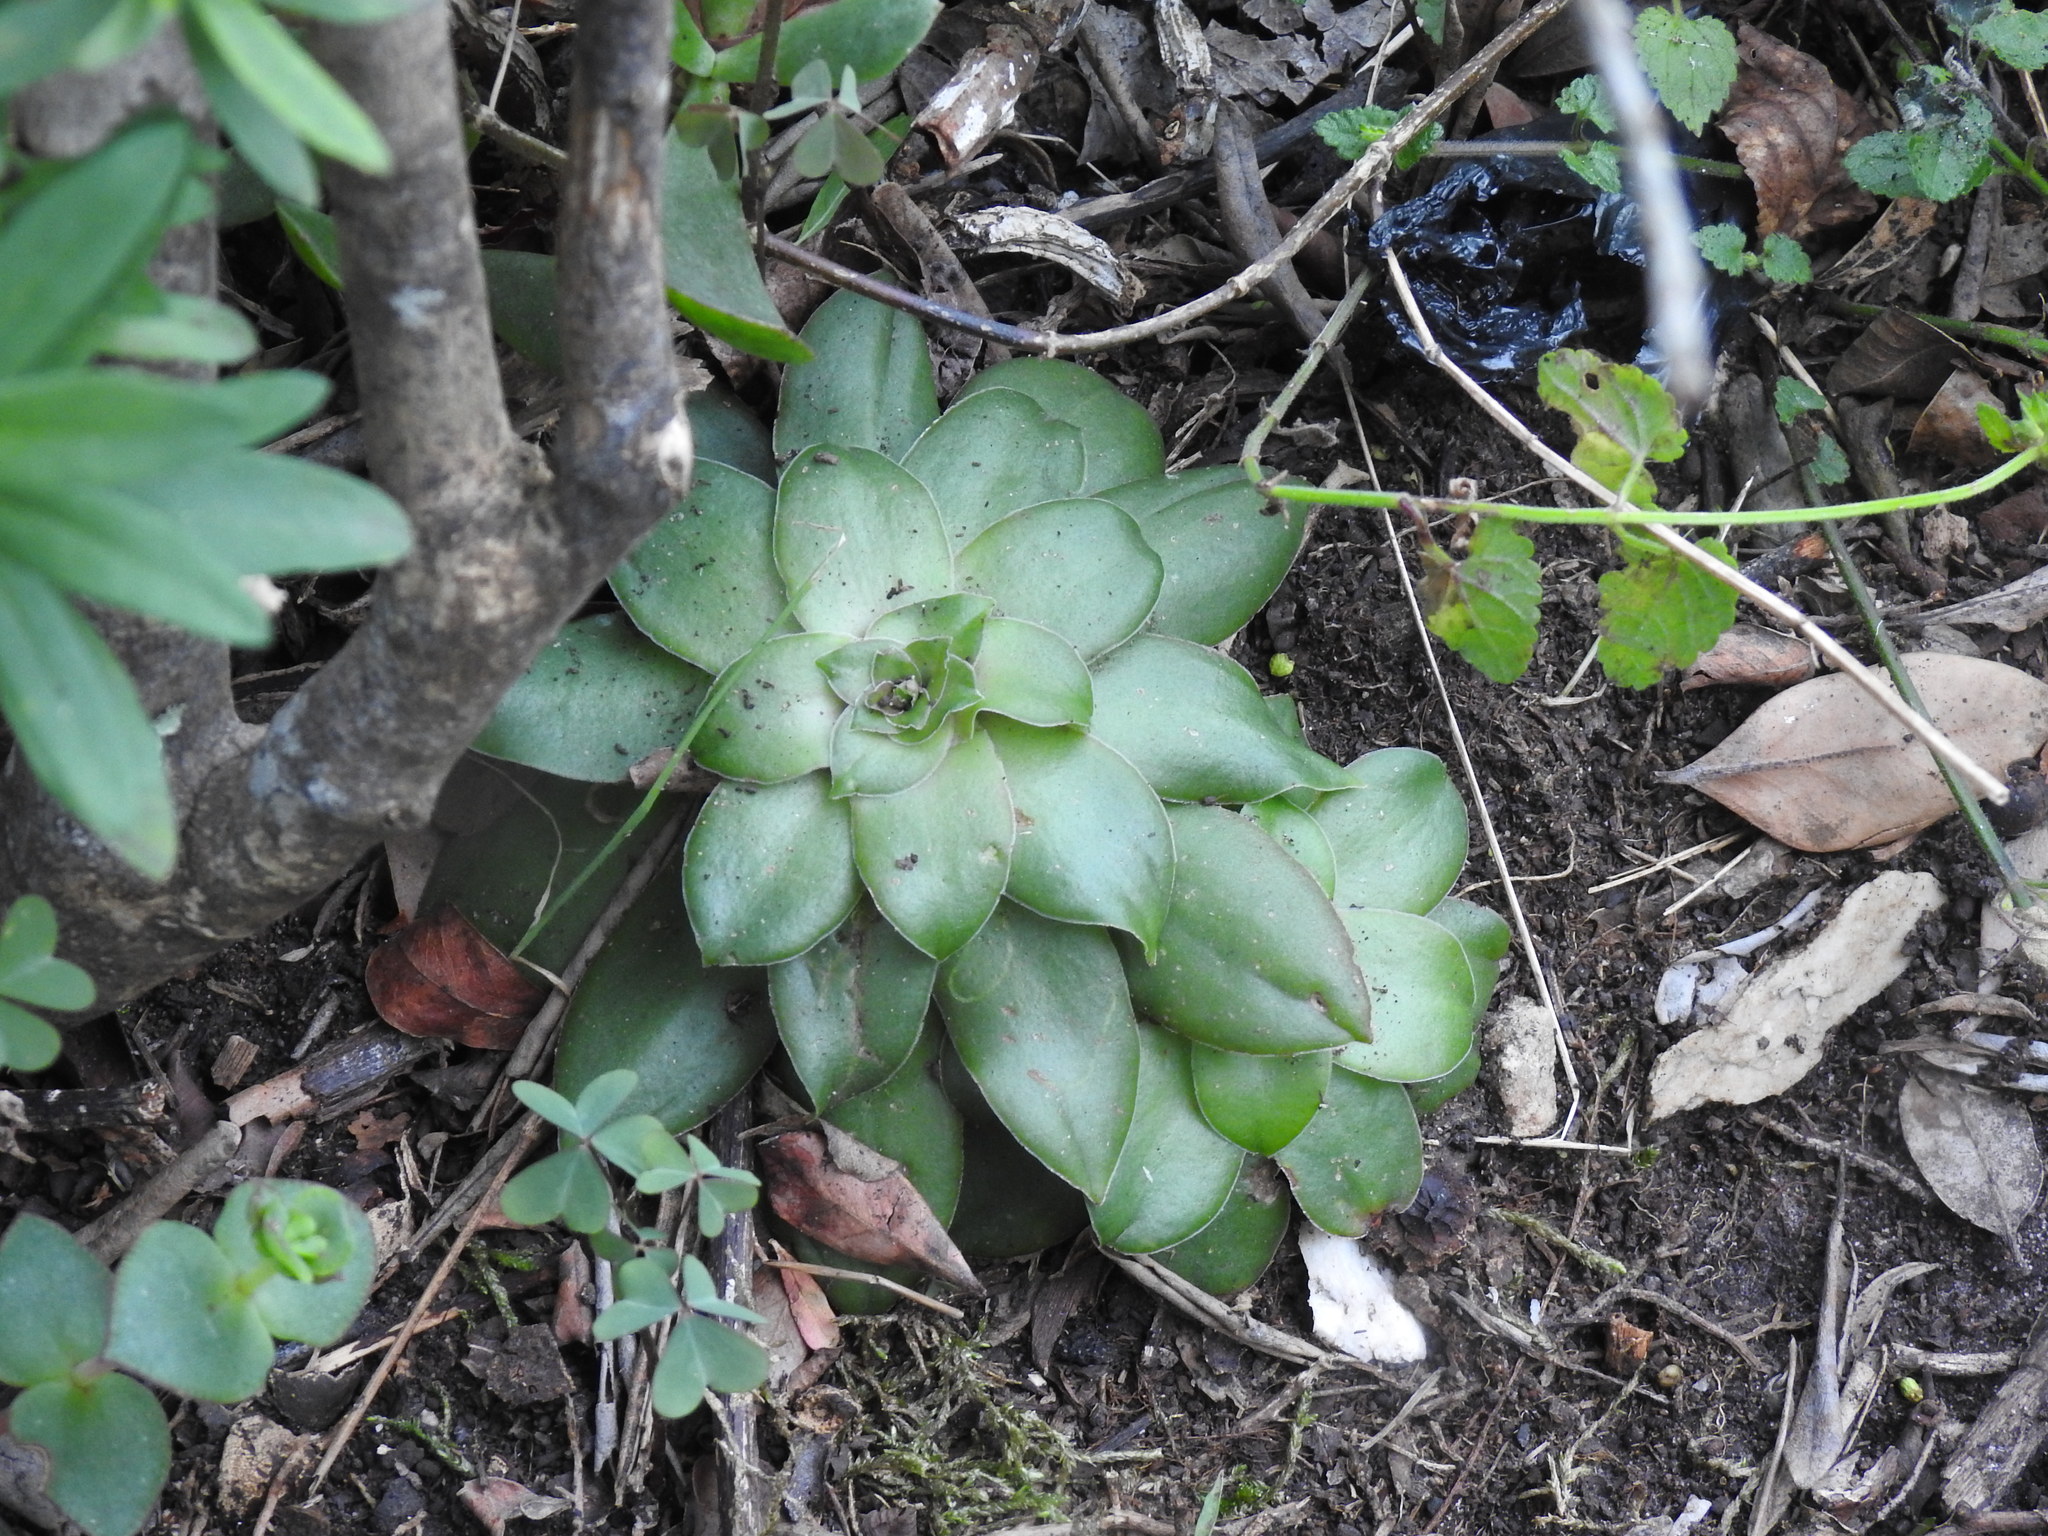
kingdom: Plantae
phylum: Tracheophyta
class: Magnoliopsida
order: Saxifragales
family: Crassulaceae
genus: Crassula
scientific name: Crassula orbicularis
